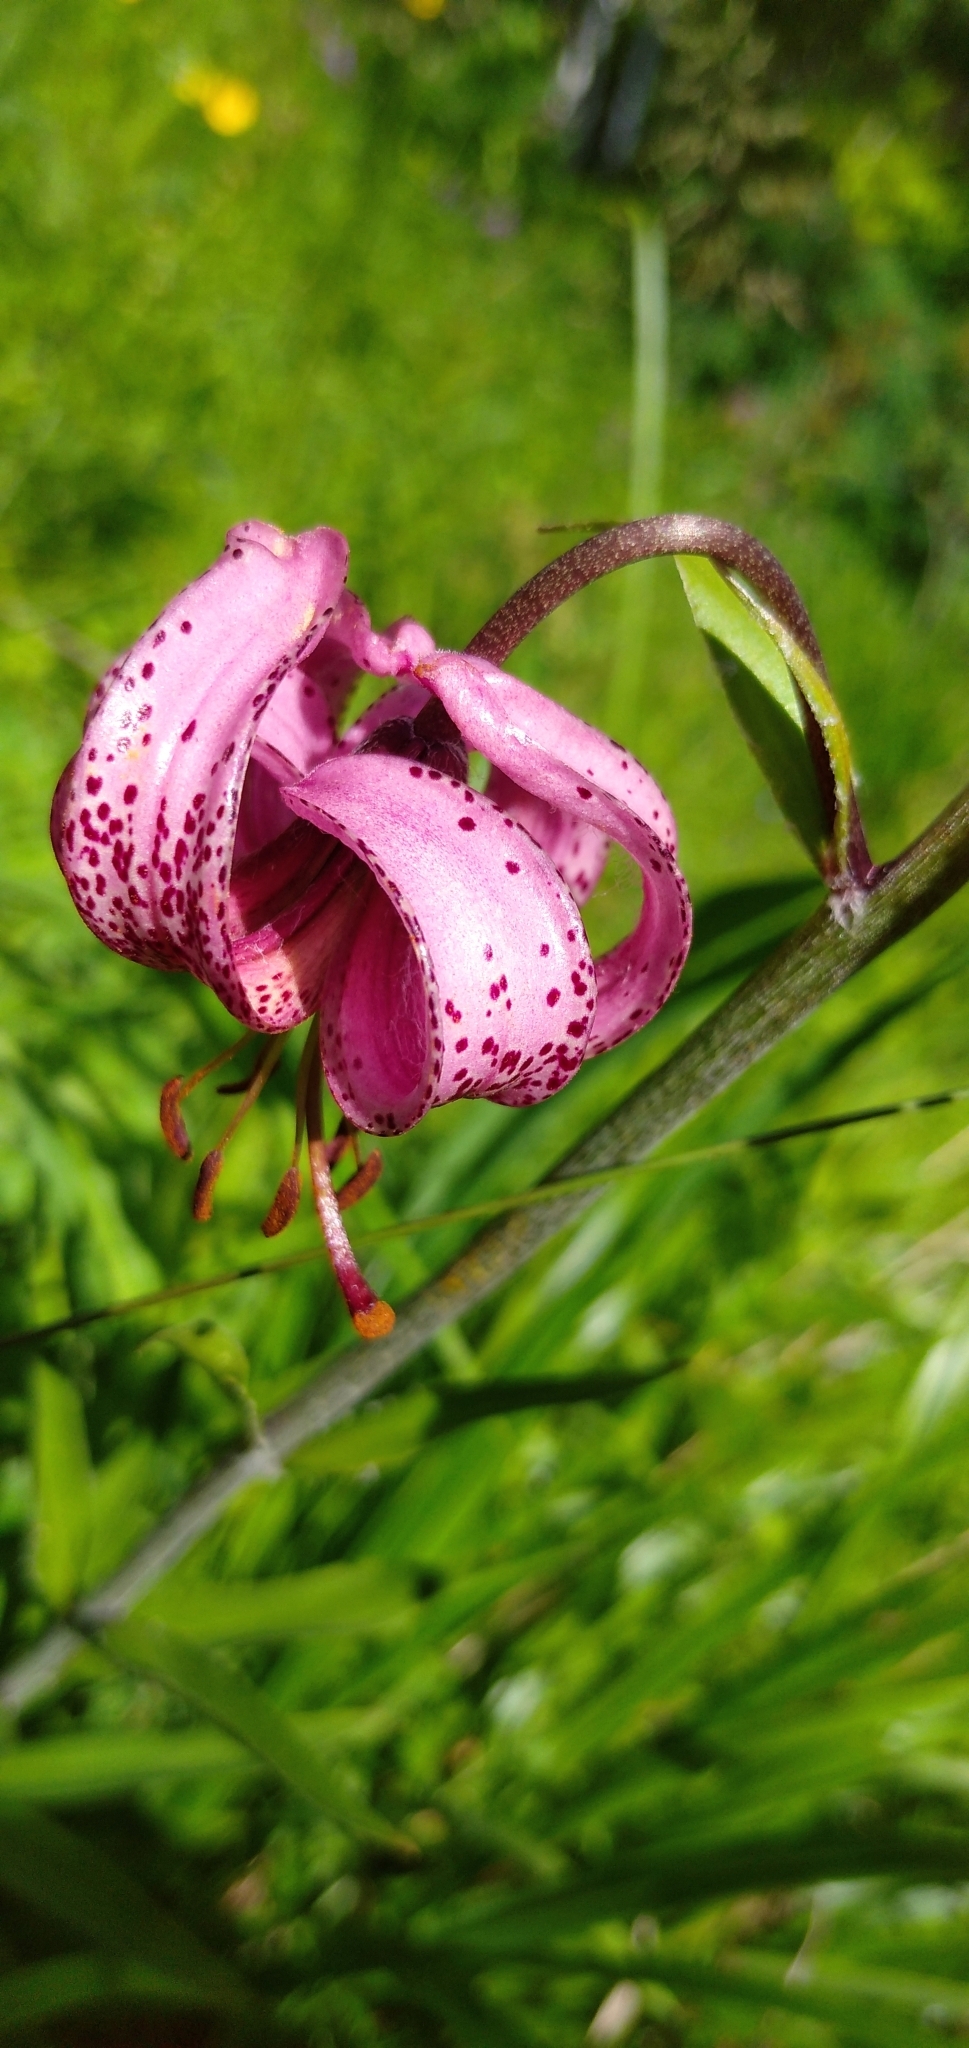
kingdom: Plantae
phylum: Tracheophyta
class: Liliopsida
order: Liliales
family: Liliaceae
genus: Lilium
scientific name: Lilium martagon
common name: Martagon lily
